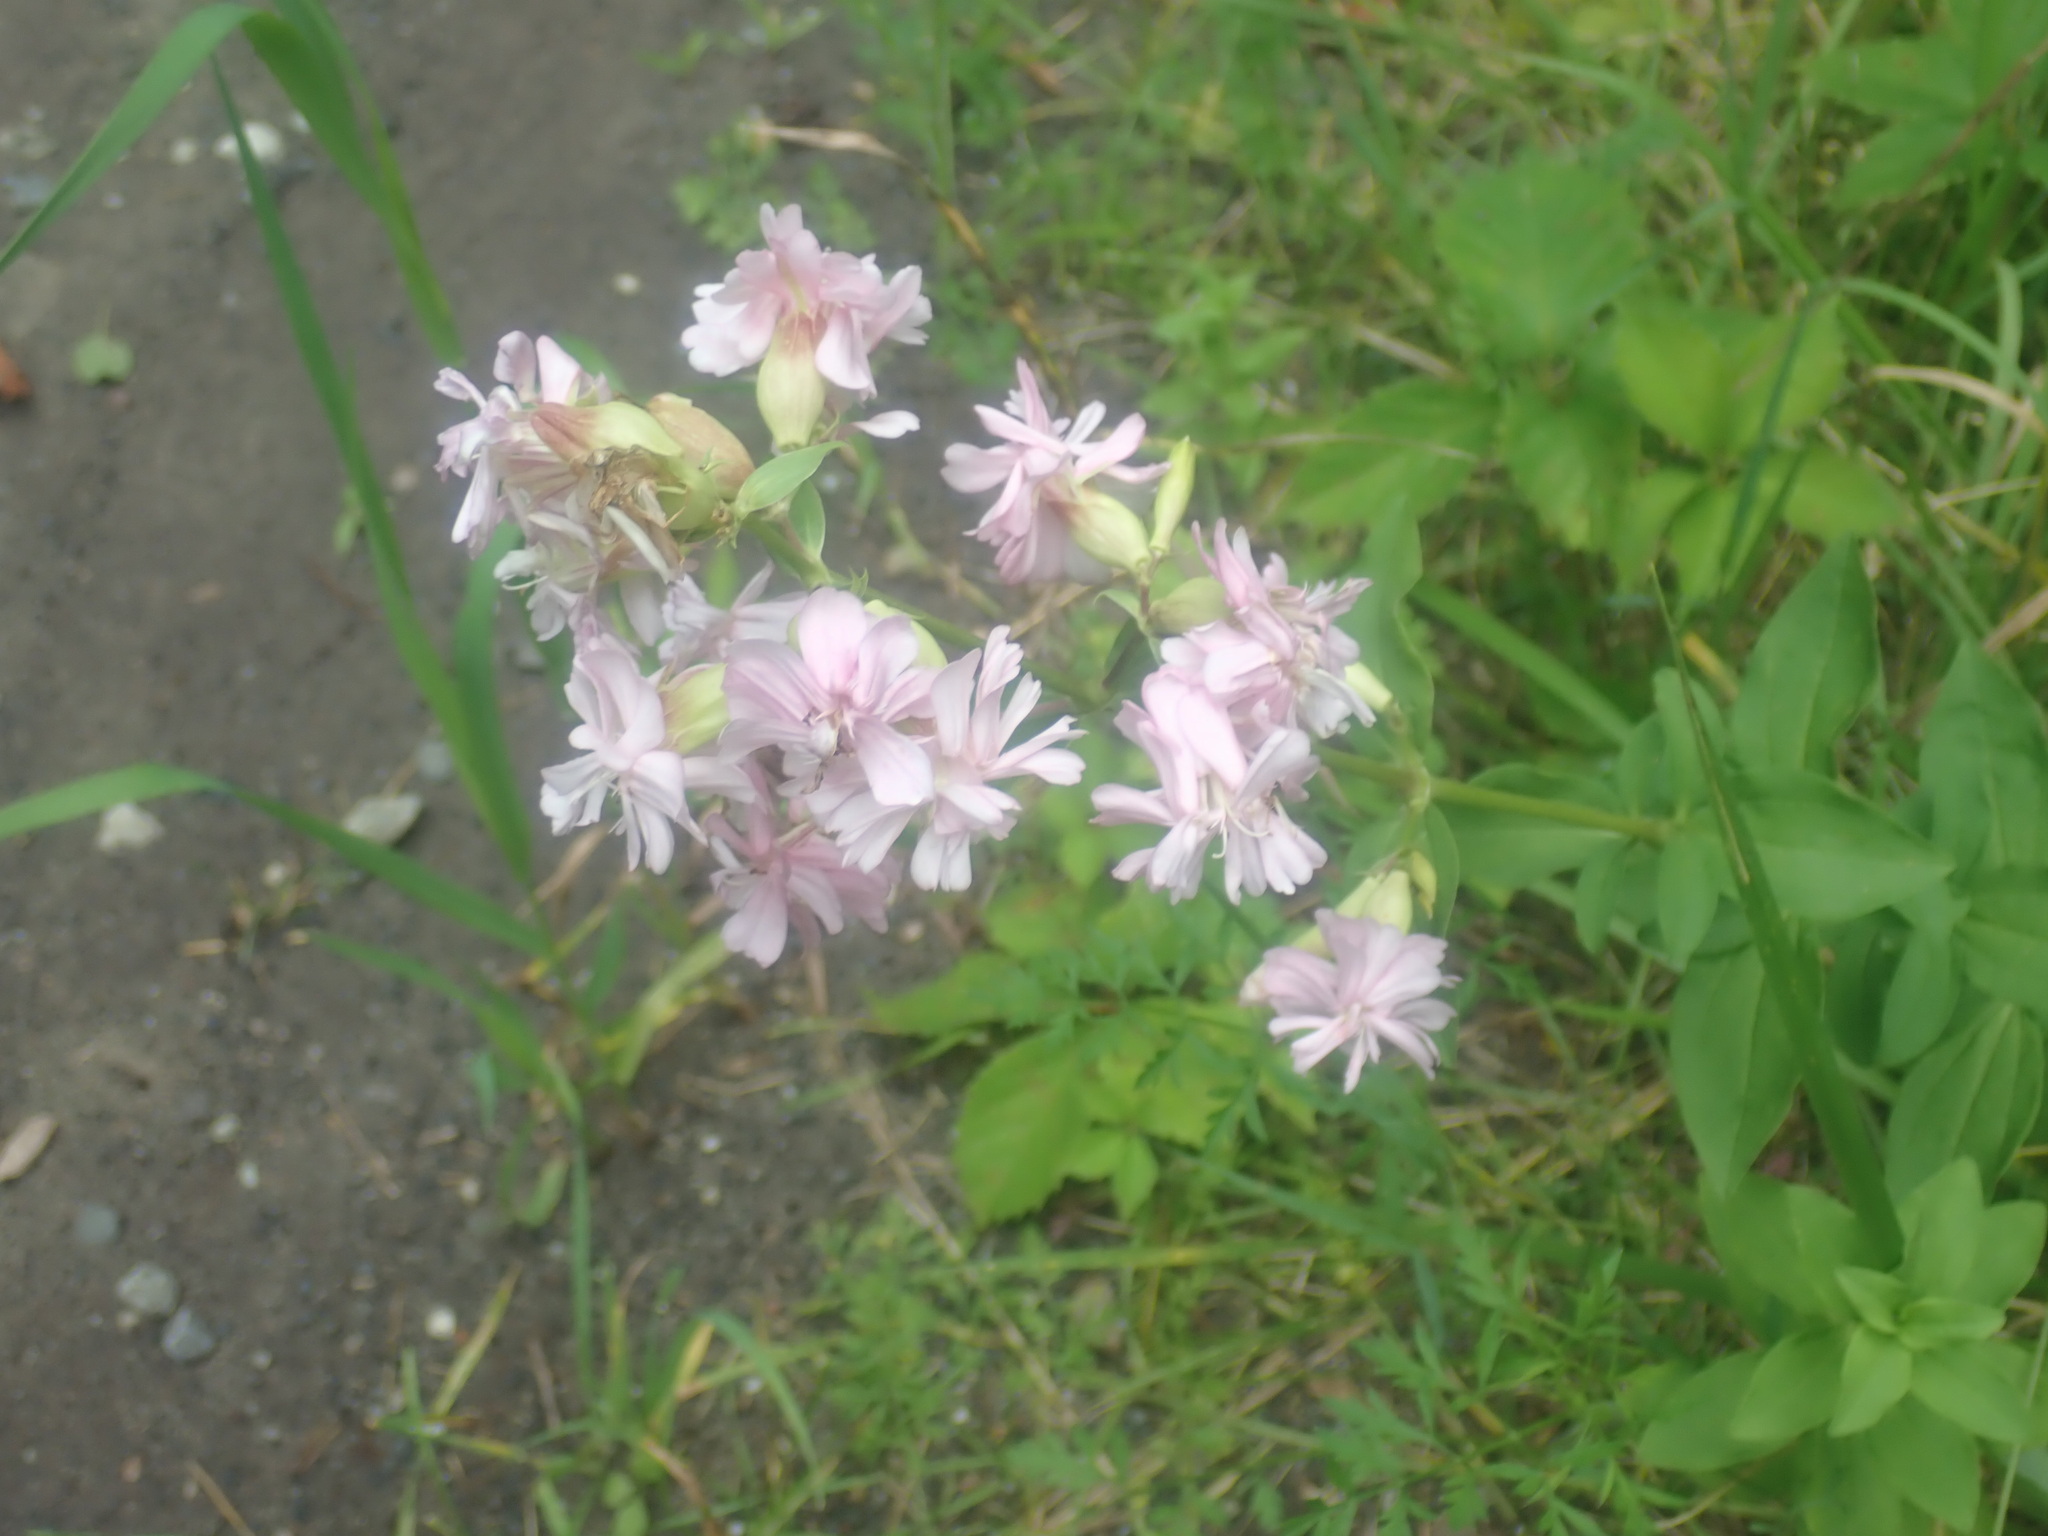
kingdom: Plantae
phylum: Tracheophyta
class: Magnoliopsida
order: Caryophyllales
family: Caryophyllaceae
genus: Saponaria
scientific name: Saponaria officinalis
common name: Soapwort
